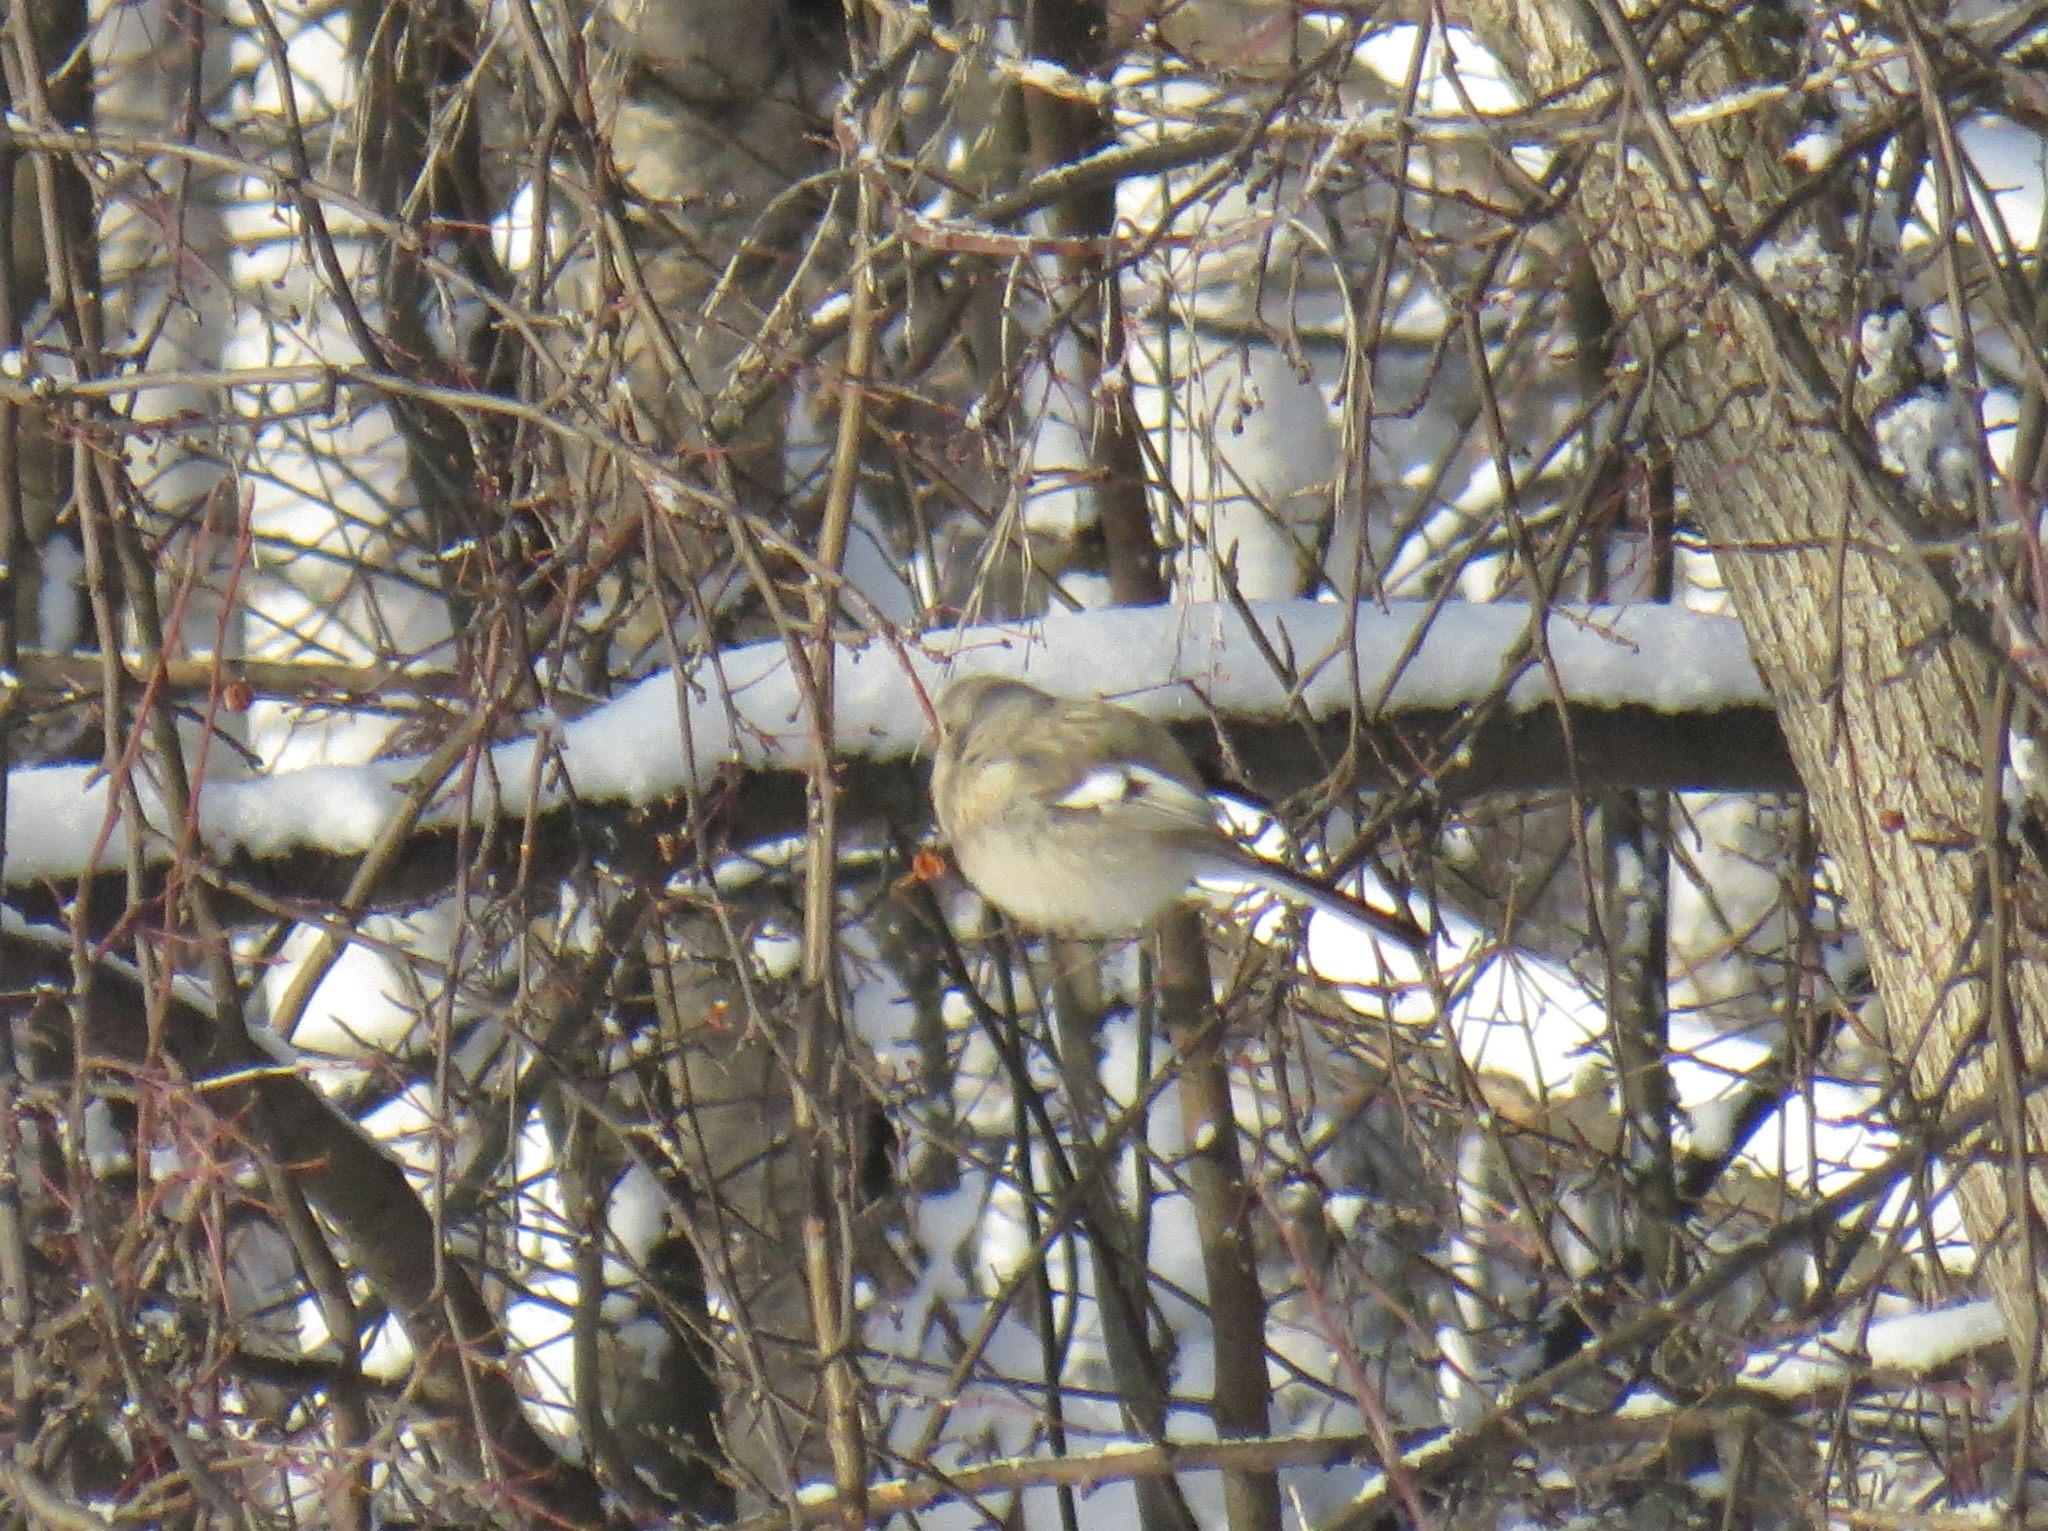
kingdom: Animalia
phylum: Chordata
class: Aves
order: Passeriformes
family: Fringillidae
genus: Carpodacus
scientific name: Carpodacus sibiricus
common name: Long-tailed rosefinch
